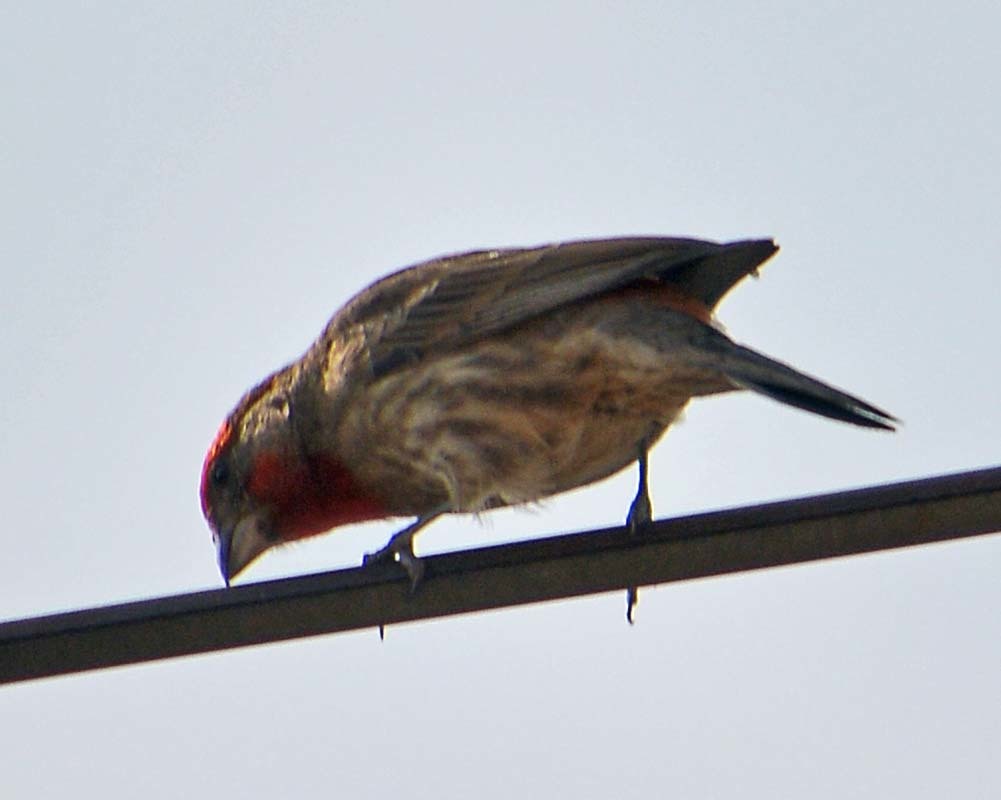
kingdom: Animalia
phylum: Chordata
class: Aves
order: Passeriformes
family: Fringillidae
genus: Haemorhous
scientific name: Haemorhous mexicanus
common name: House finch
